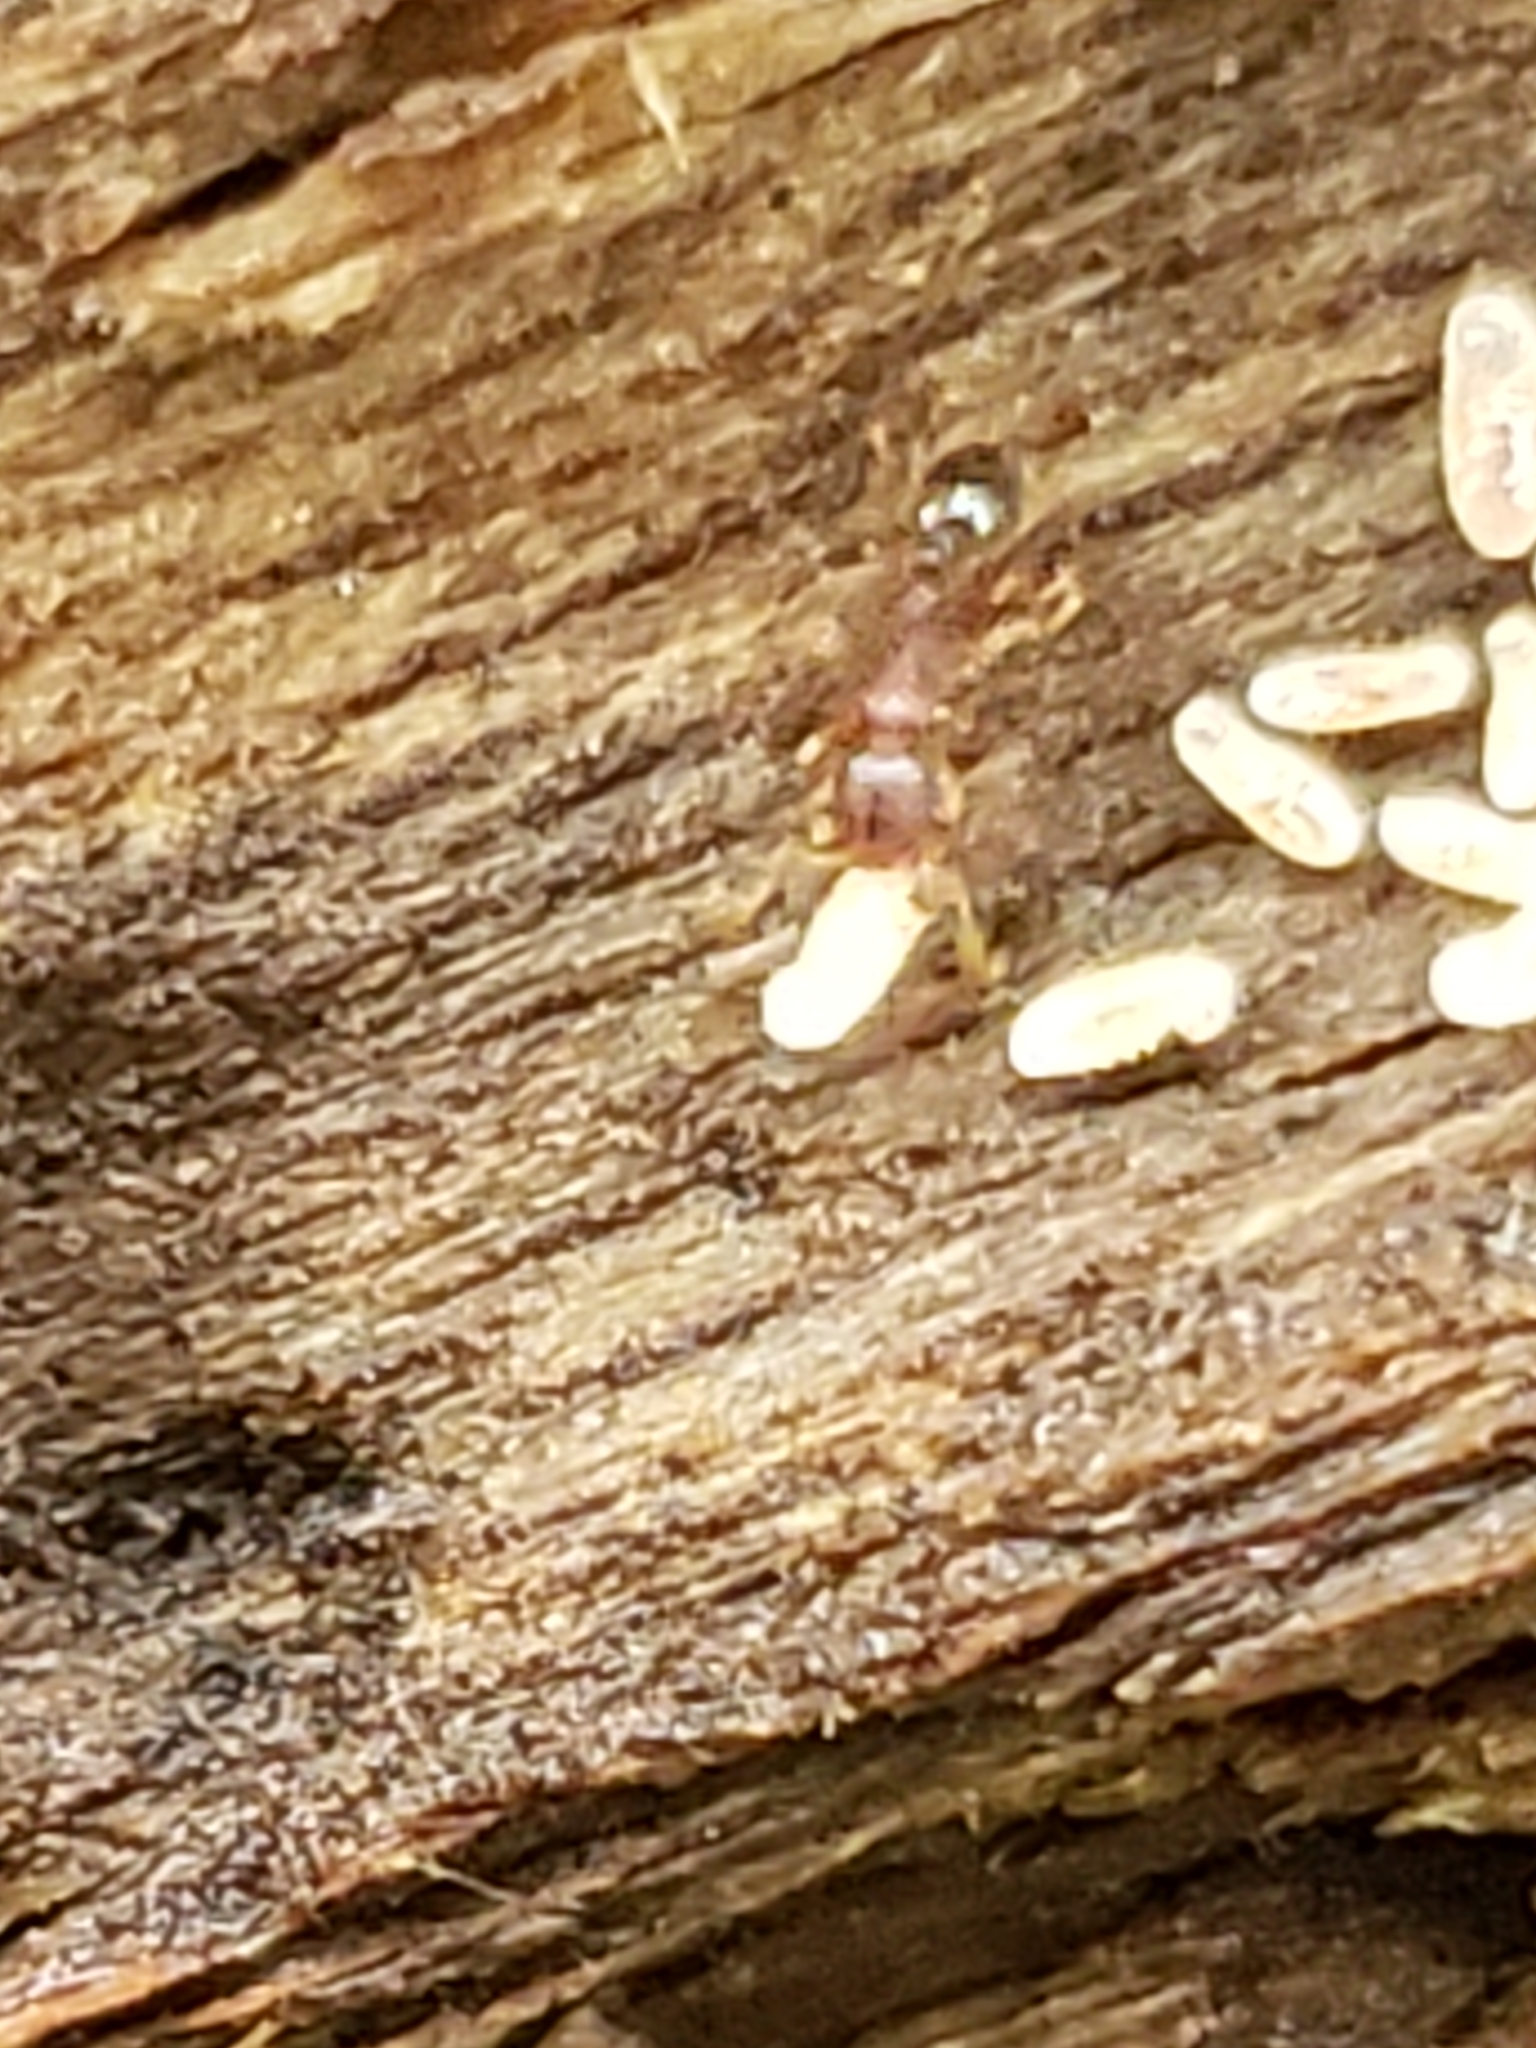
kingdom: Animalia
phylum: Arthropoda
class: Insecta
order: Hymenoptera
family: Formicidae
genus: Vollenhovia
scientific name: Vollenhovia emeryi
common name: Ant
